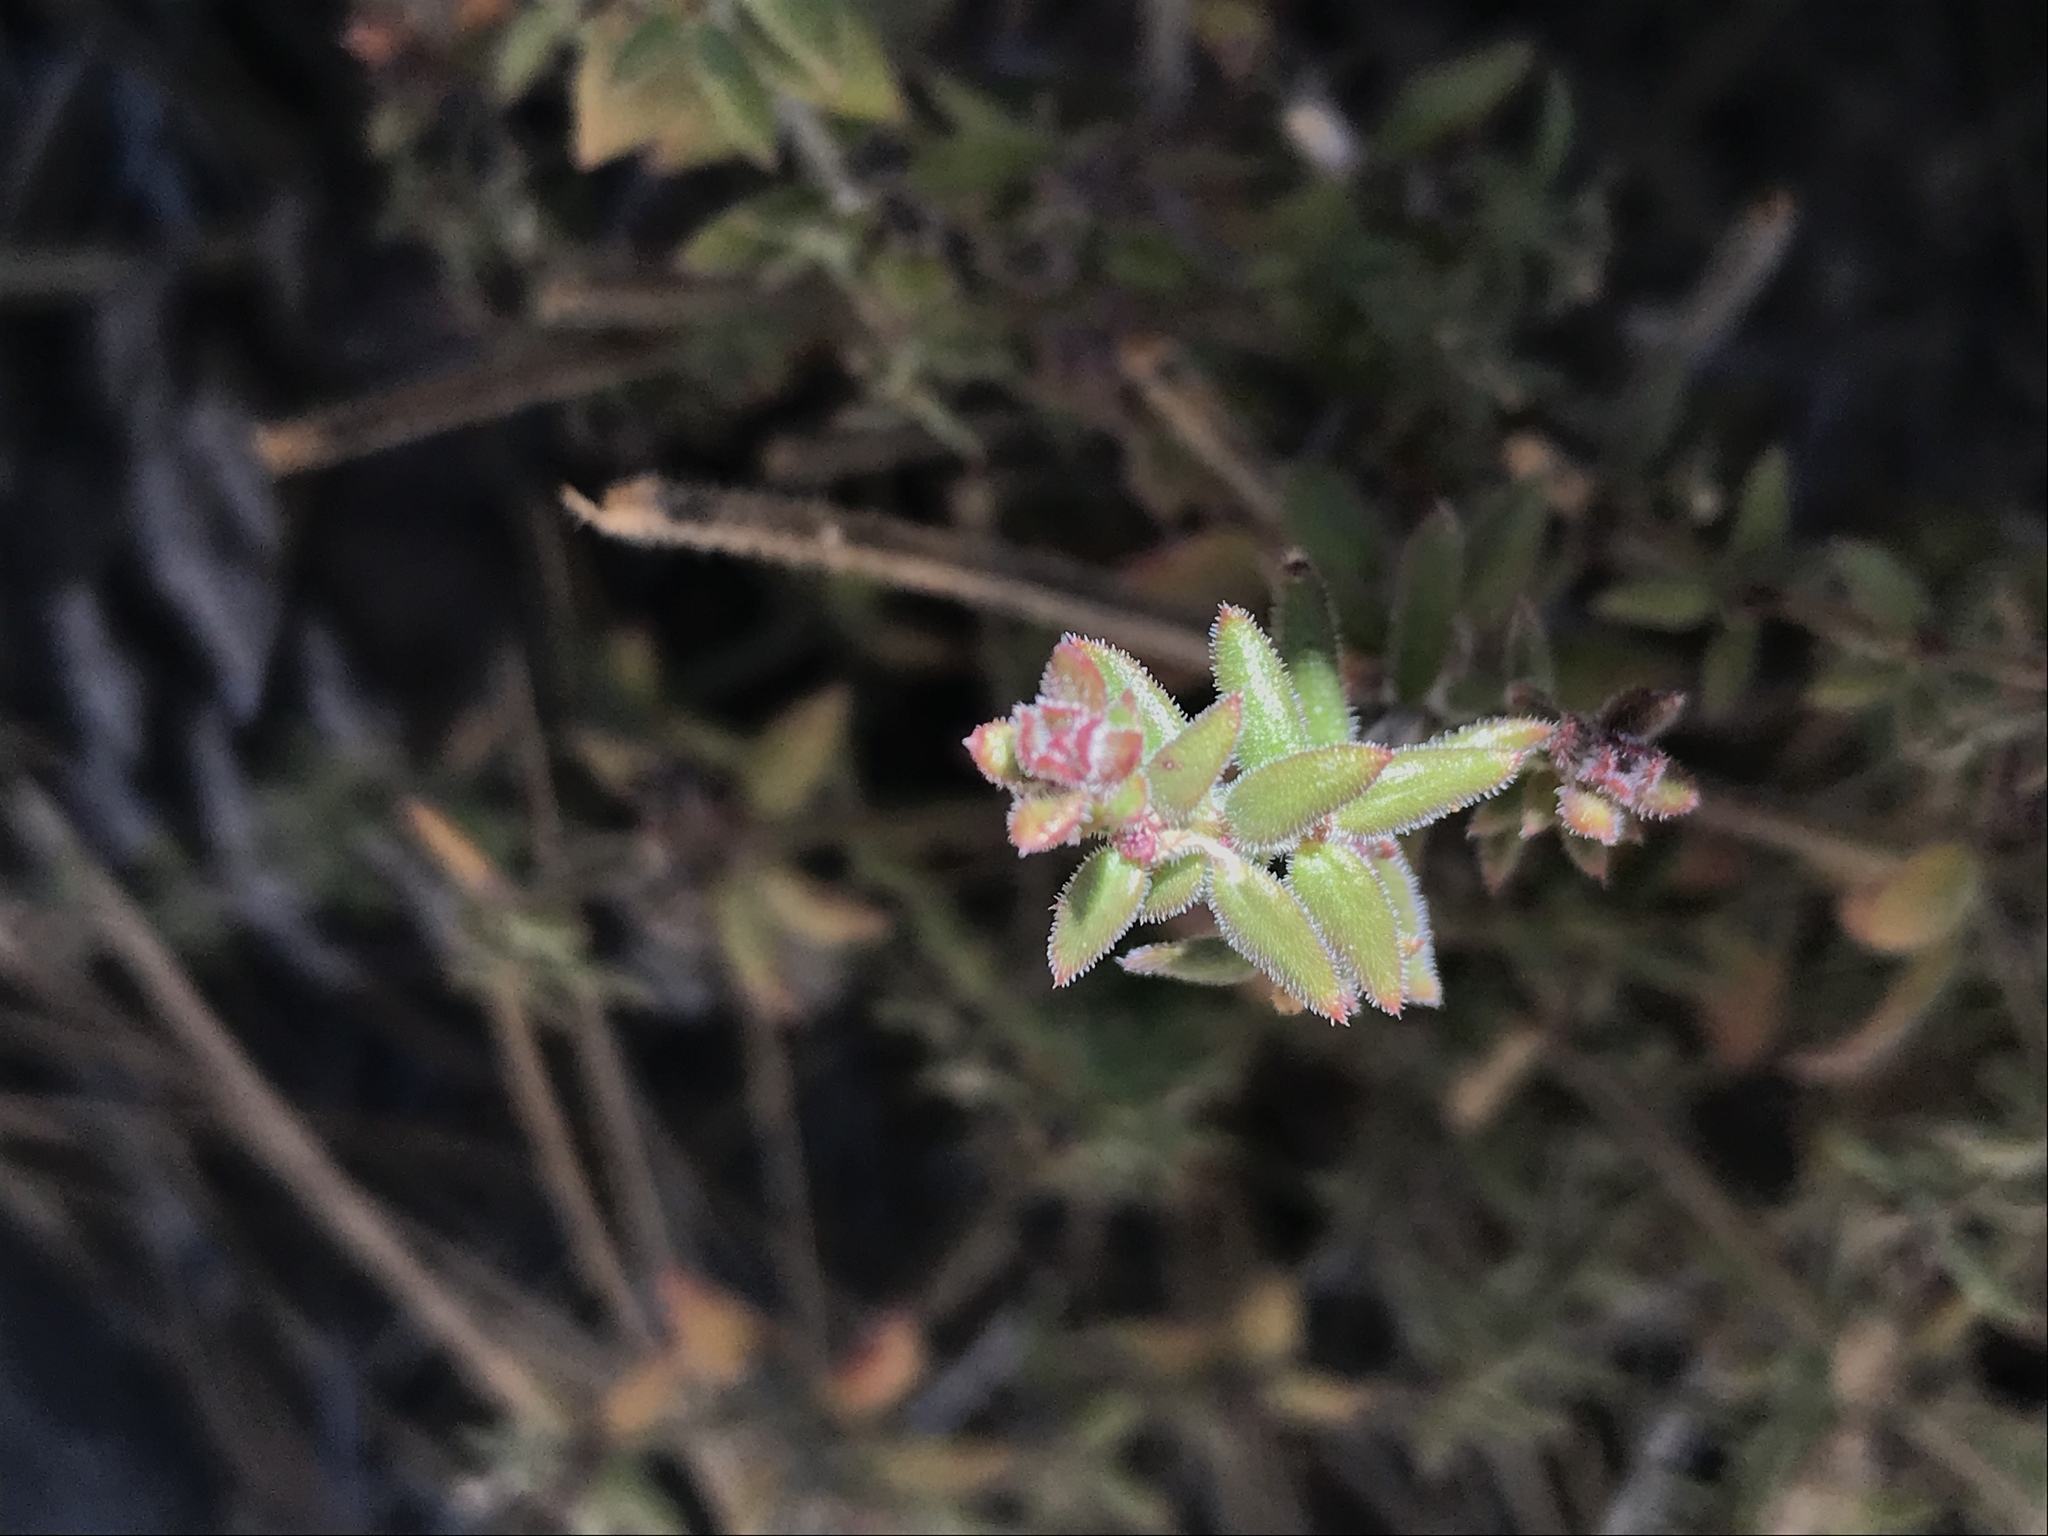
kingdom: Plantae
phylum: Tracheophyta
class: Magnoliopsida
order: Gentianales
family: Rubiaceae
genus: Galium
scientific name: Galium martirense
